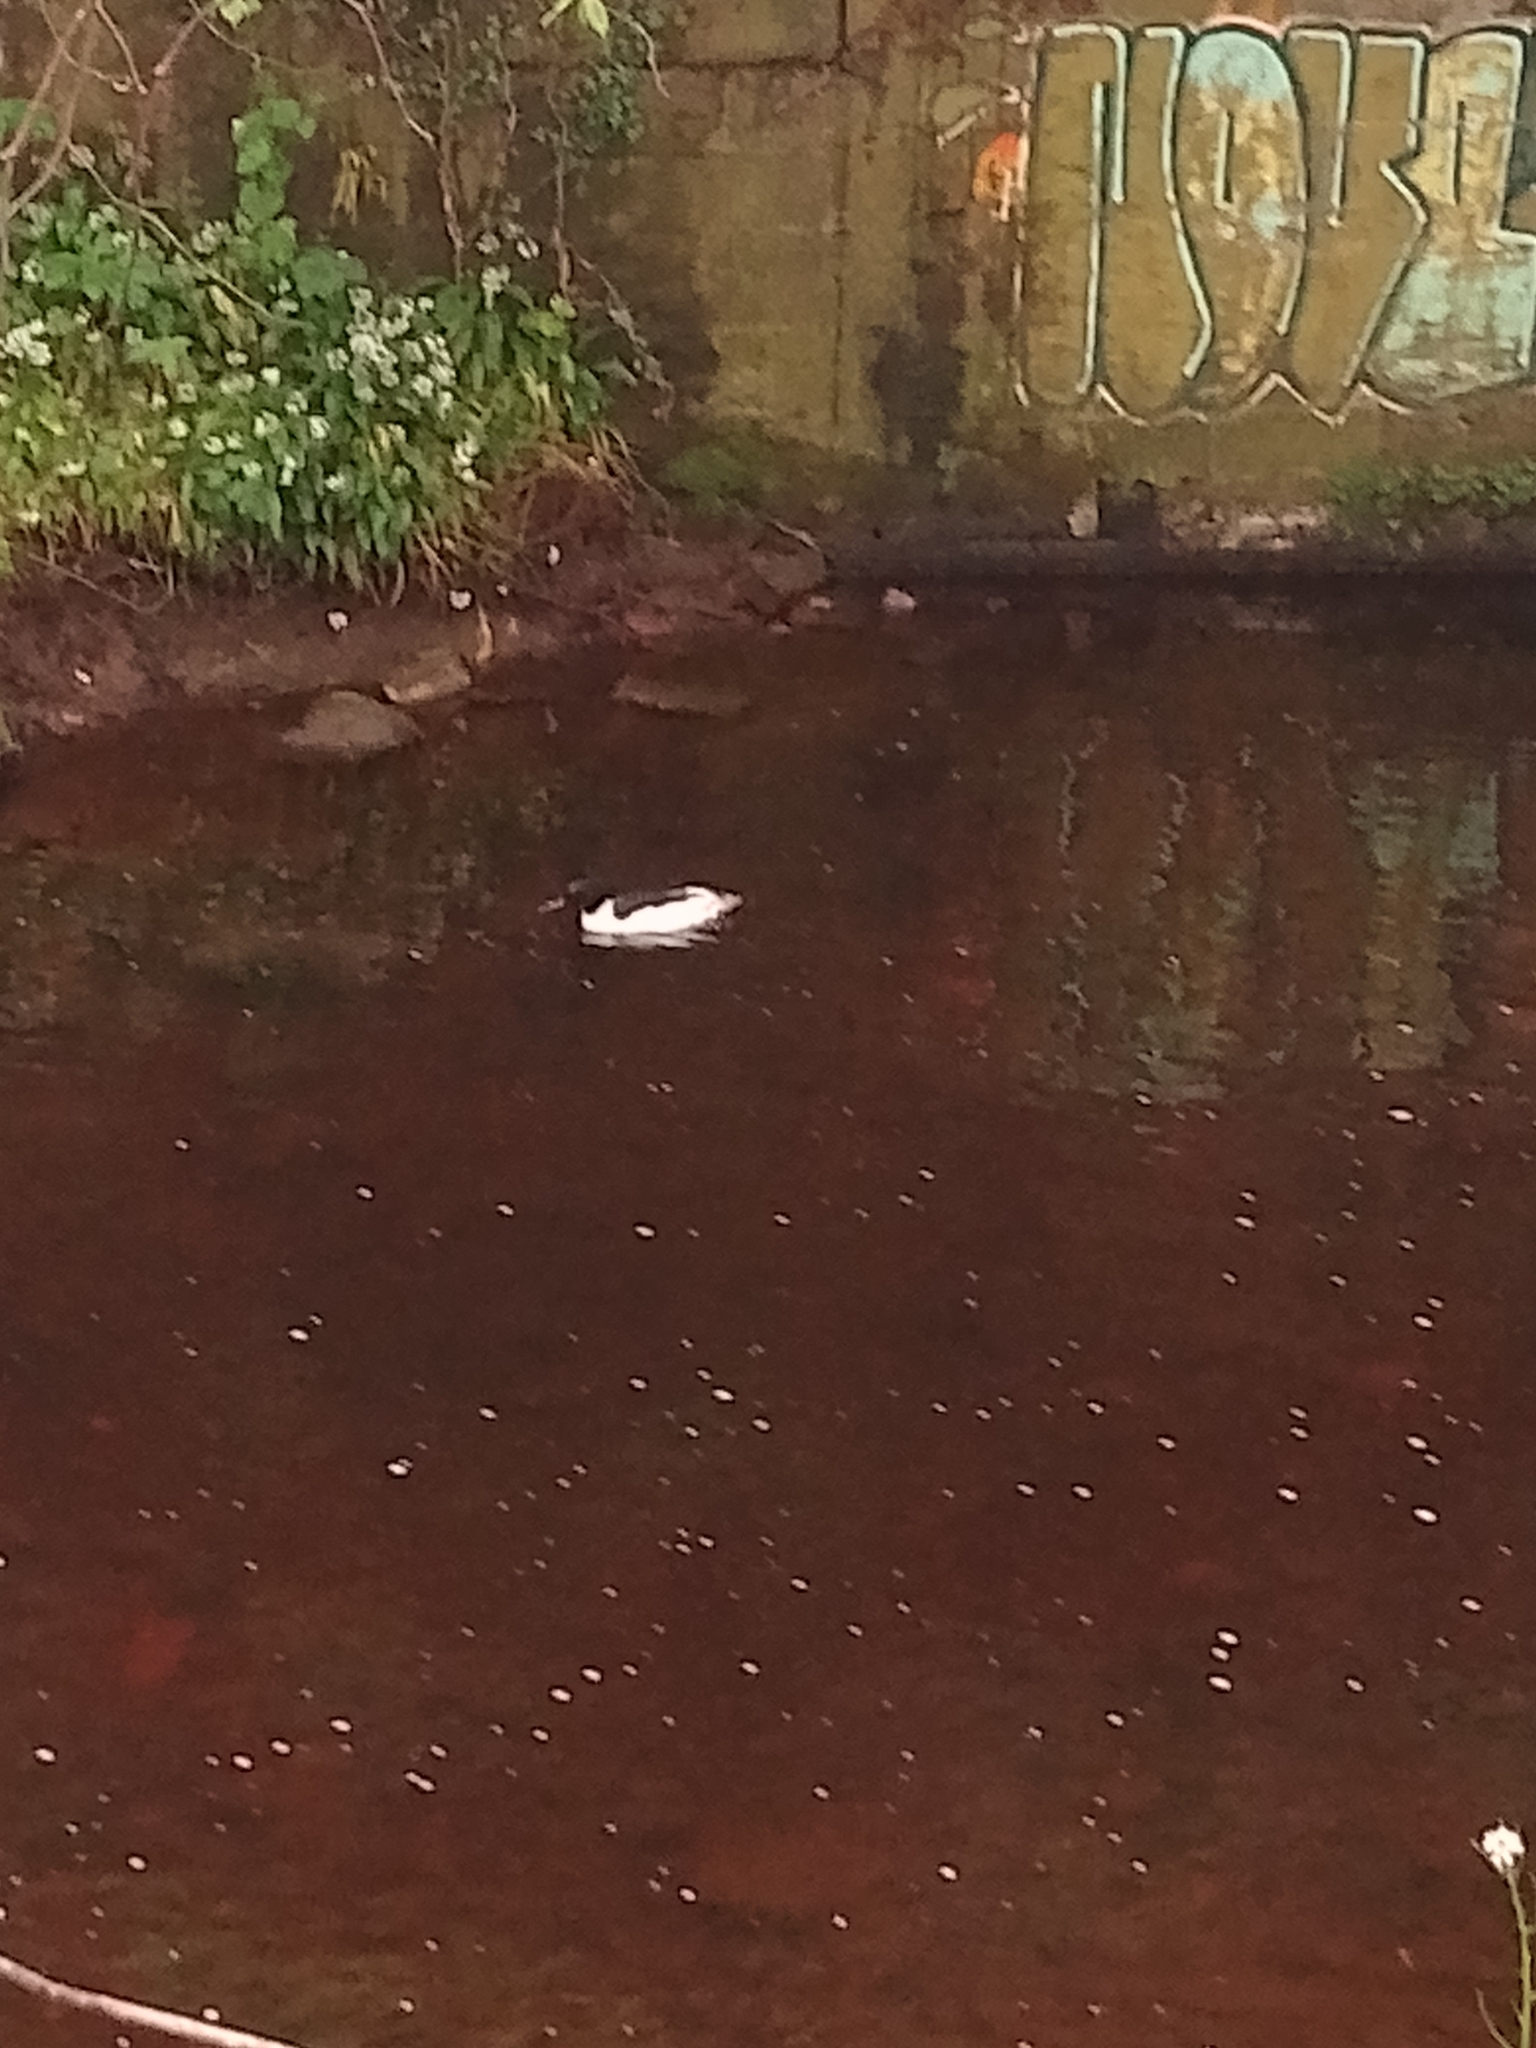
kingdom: Animalia
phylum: Chordata
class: Aves
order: Anseriformes
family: Anatidae
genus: Mergus
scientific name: Mergus merganser
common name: Common merganser
